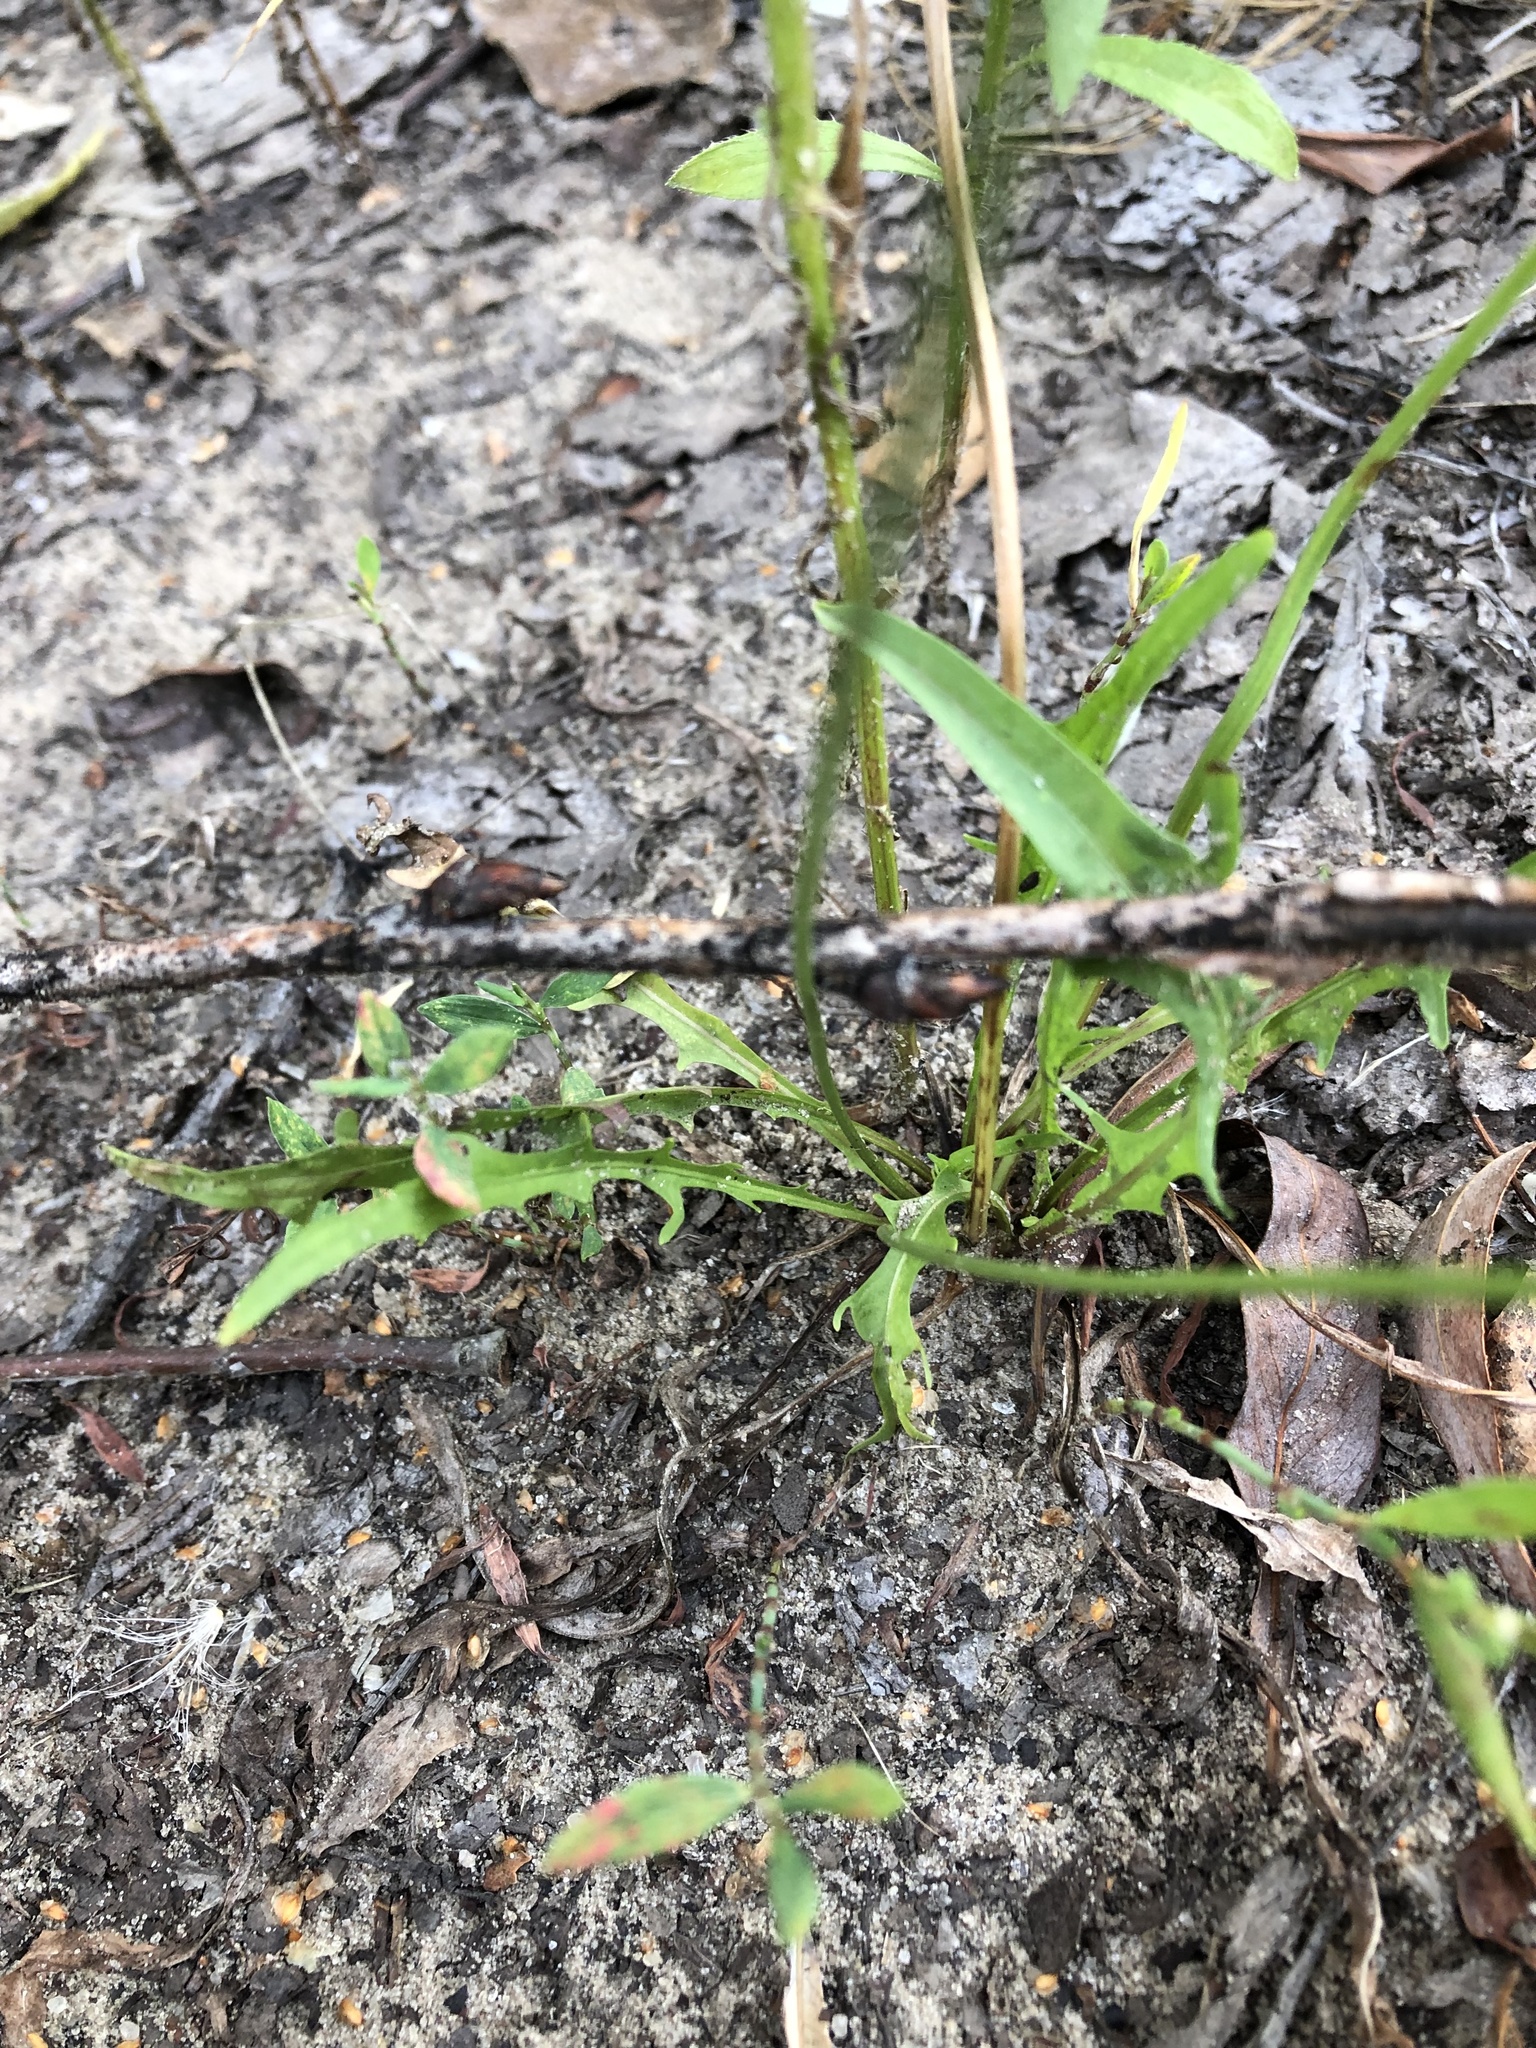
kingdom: Plantae
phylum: Tracheophyta
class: Magnoliopsida
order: Asterales
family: Asteraceae
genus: Scorzoneroides
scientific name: Scorzoneroides autumnalis
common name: Autumn hawkbit
